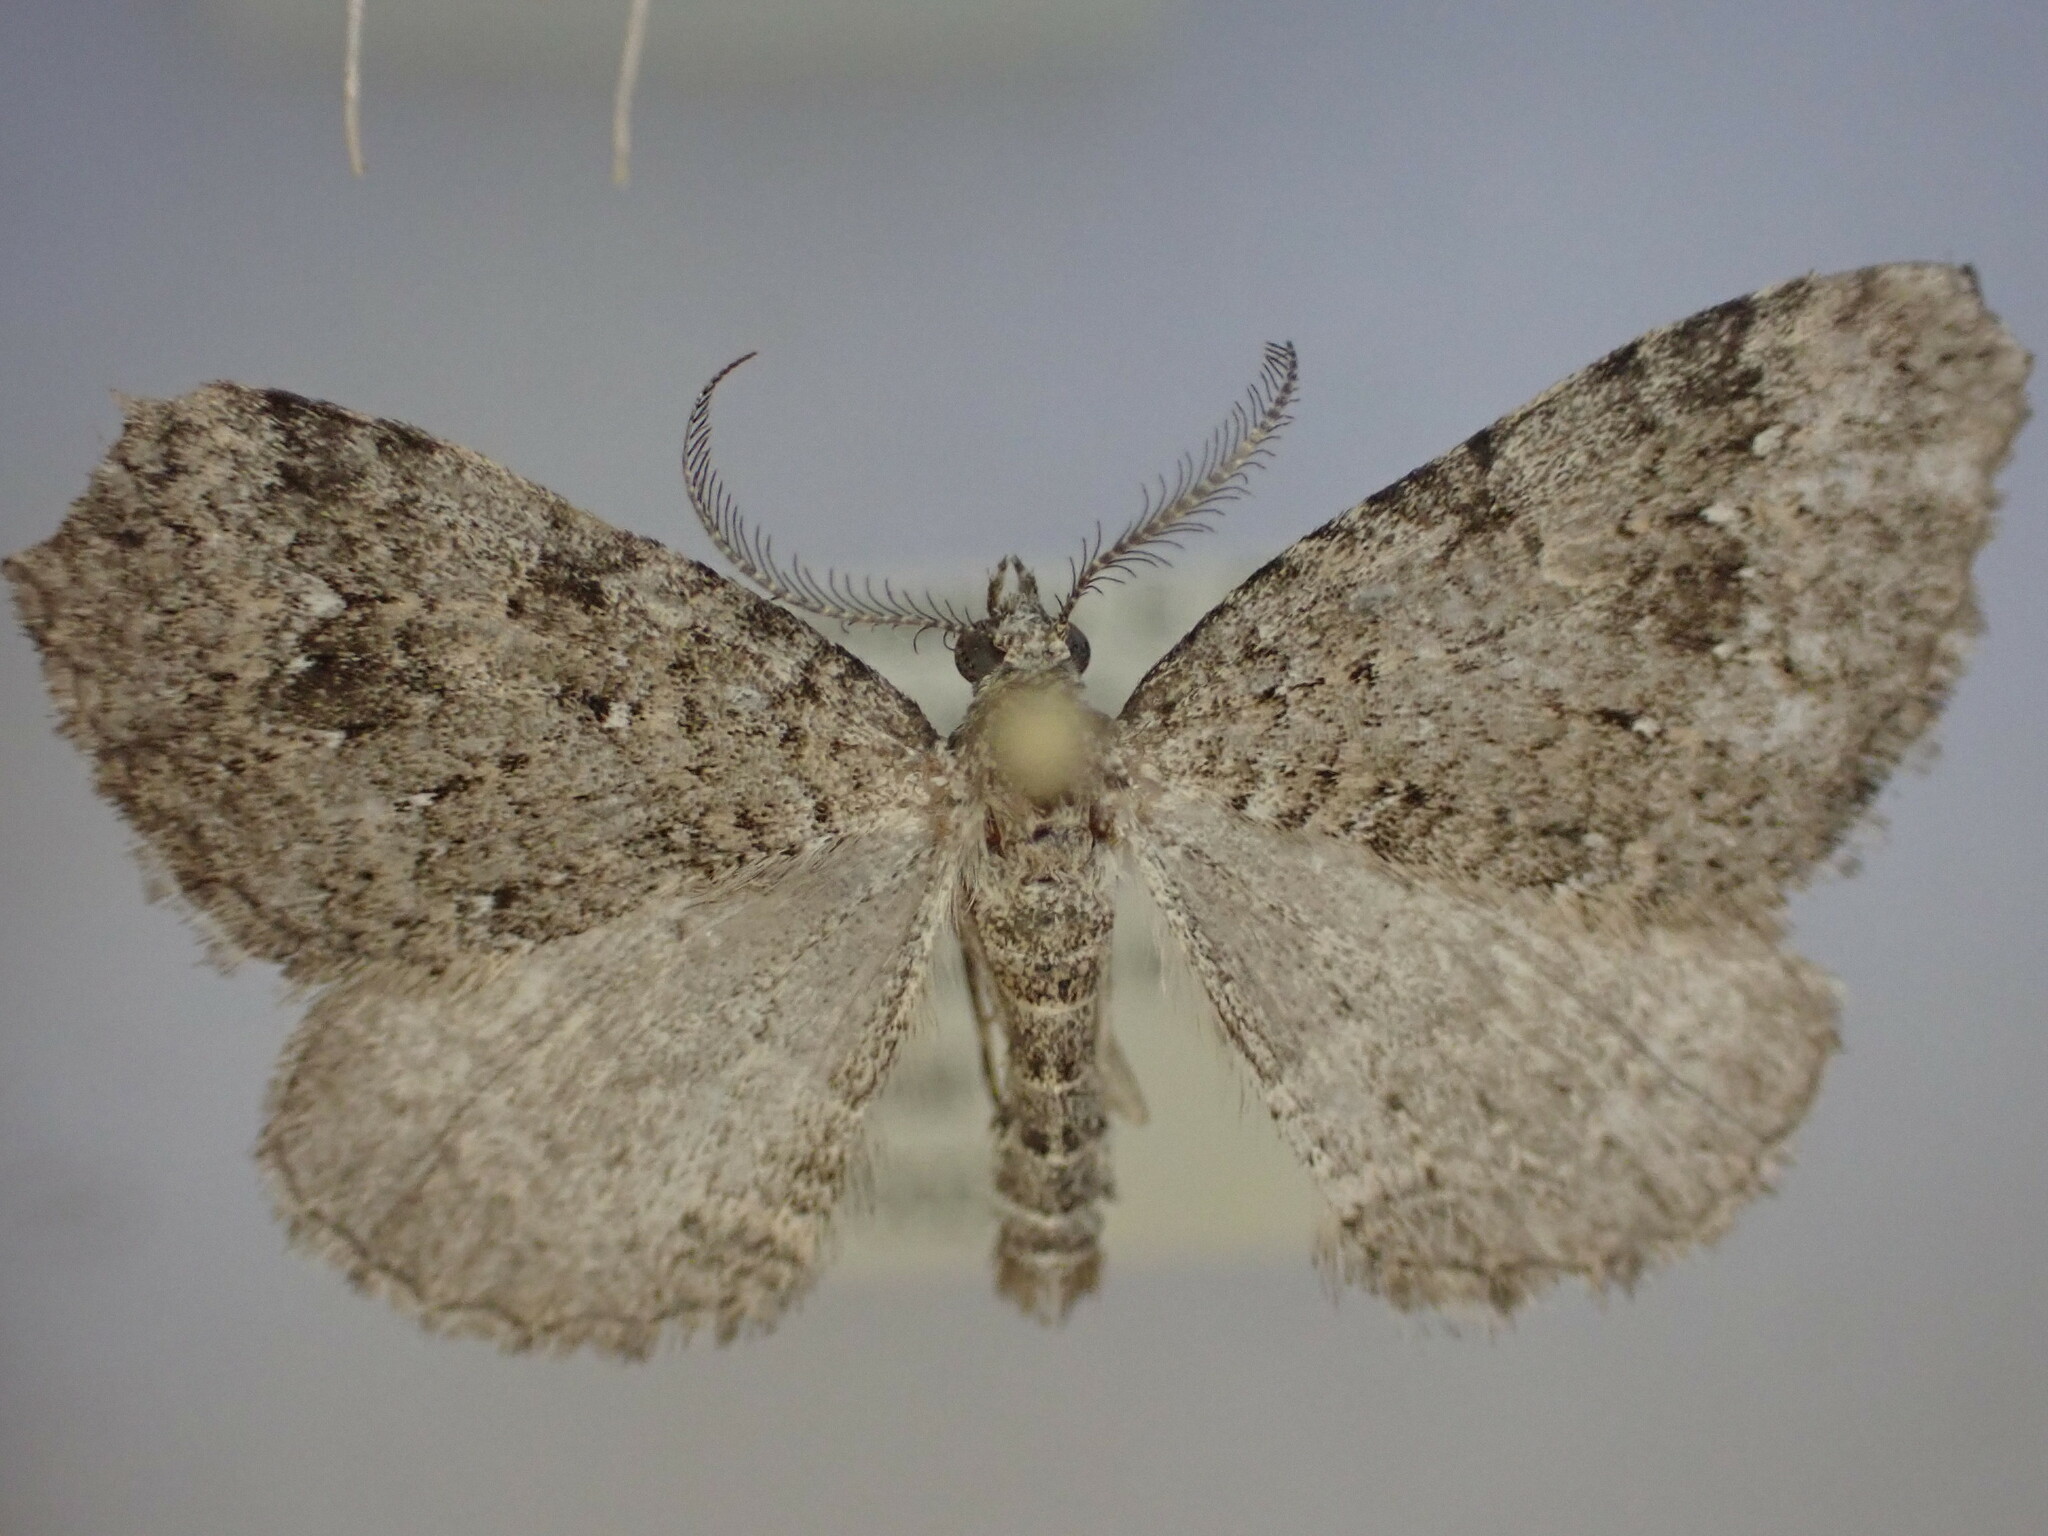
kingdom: Animalia
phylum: Arthropoda
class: Insecta
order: Lepidoptera
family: Geometridae
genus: Helastia
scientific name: Helastia semisignata
